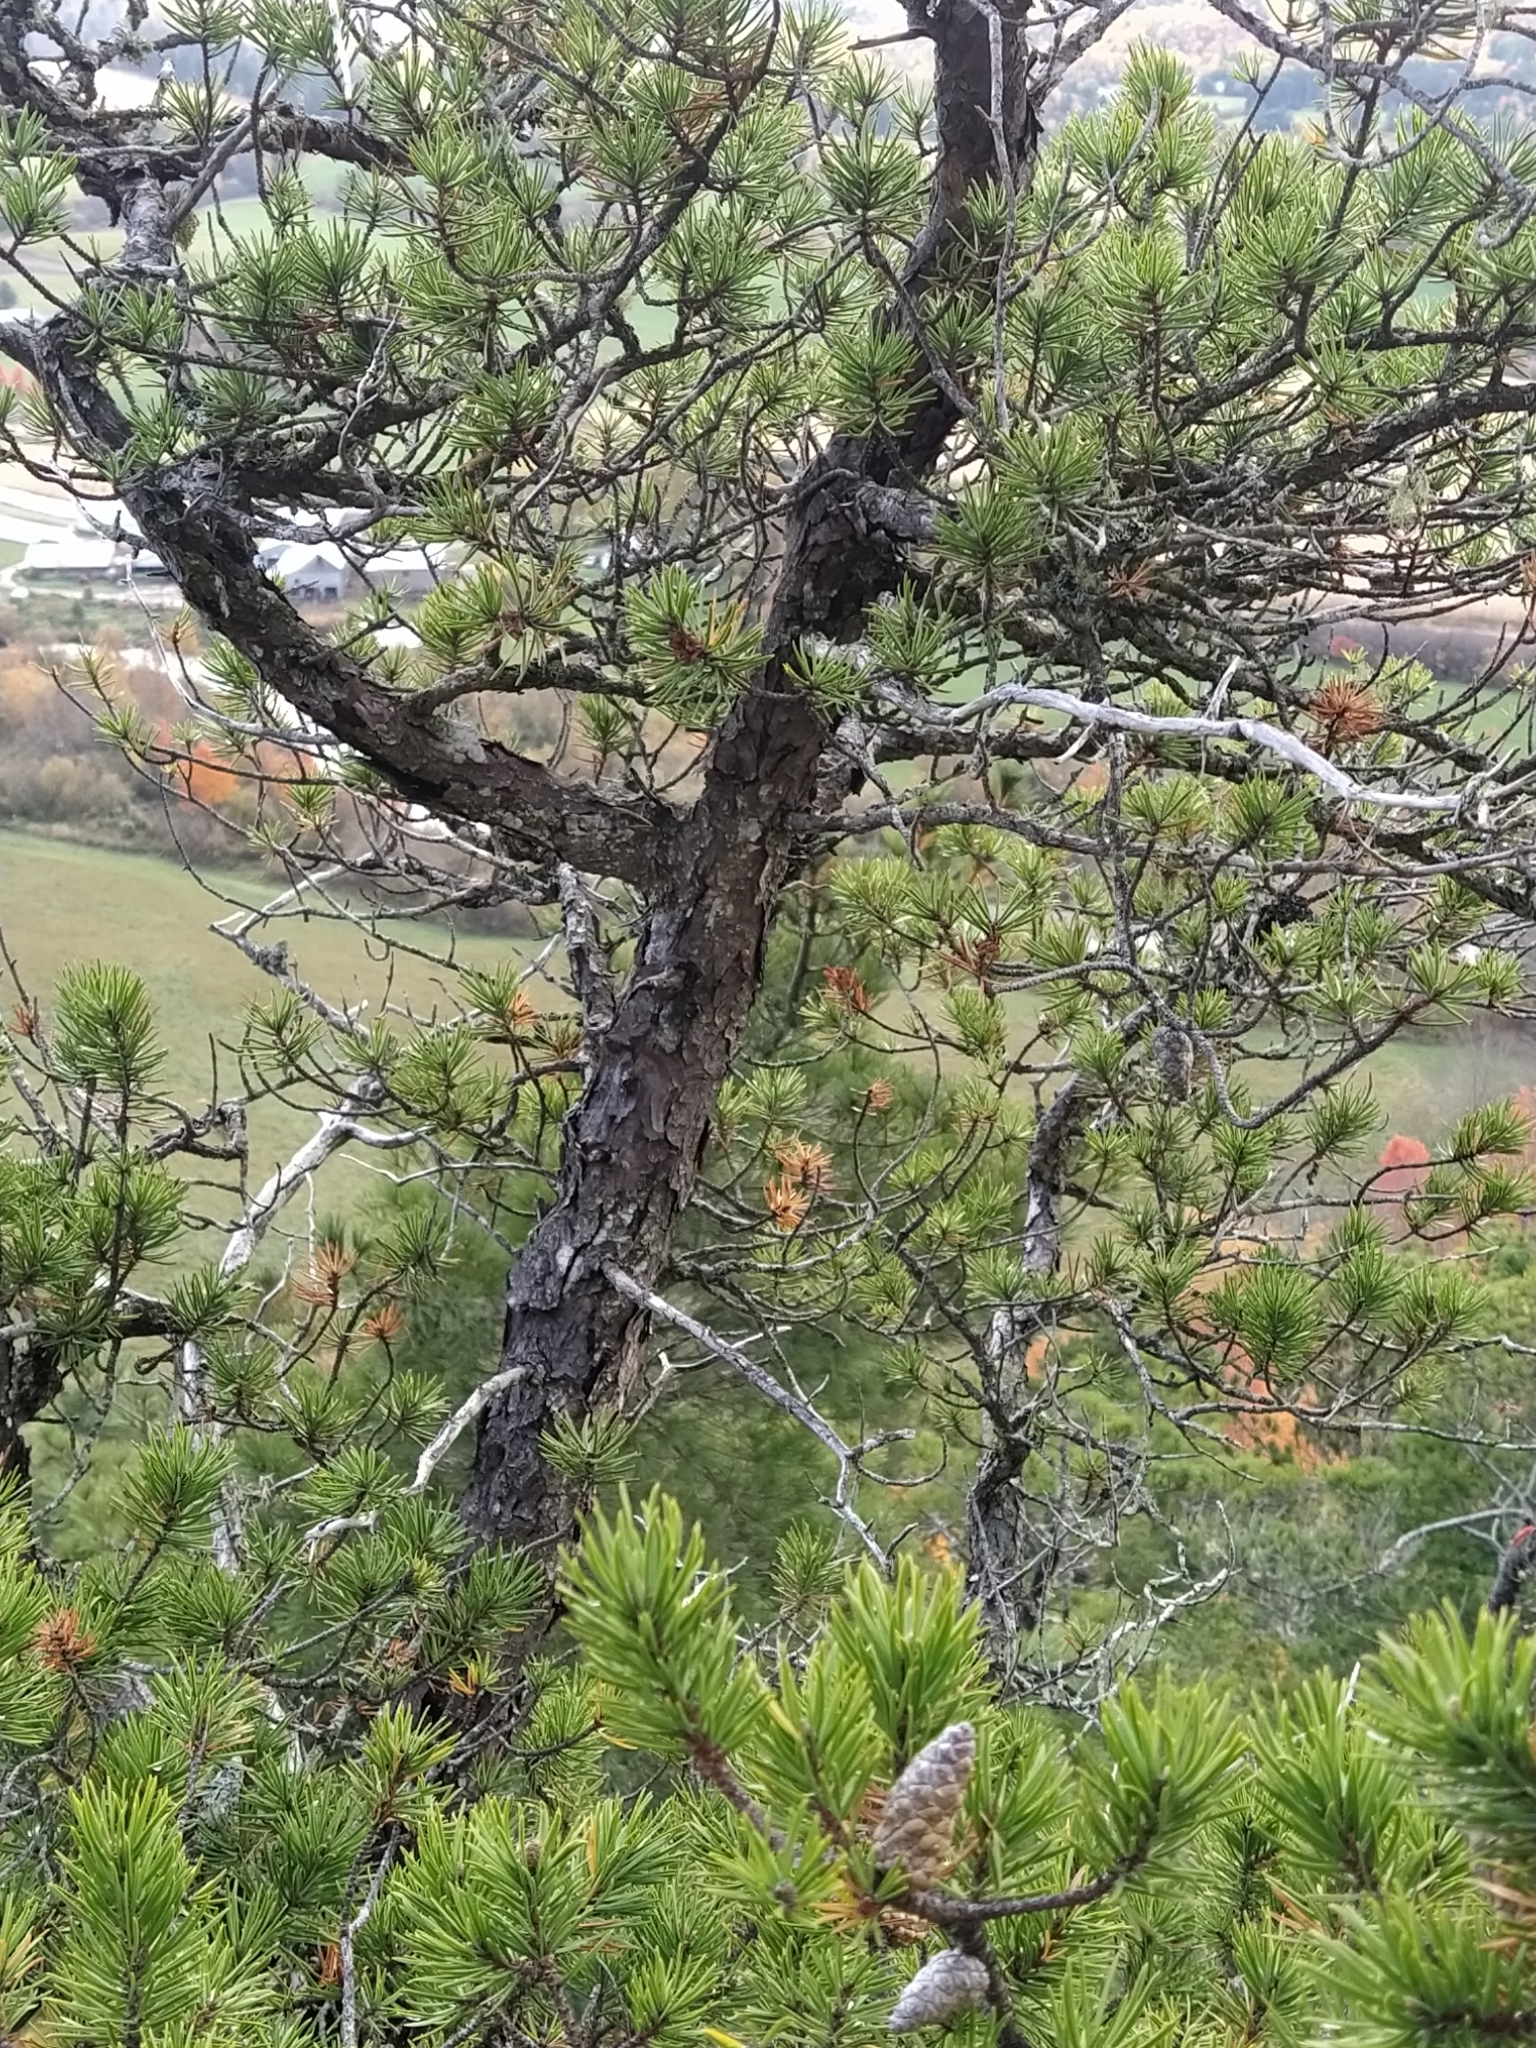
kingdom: Plantae
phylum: Tracheophyta
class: Pinopsida
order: Pinales
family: Pinaceae
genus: Pinus
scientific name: Pinus banksiana
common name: Jack pine
